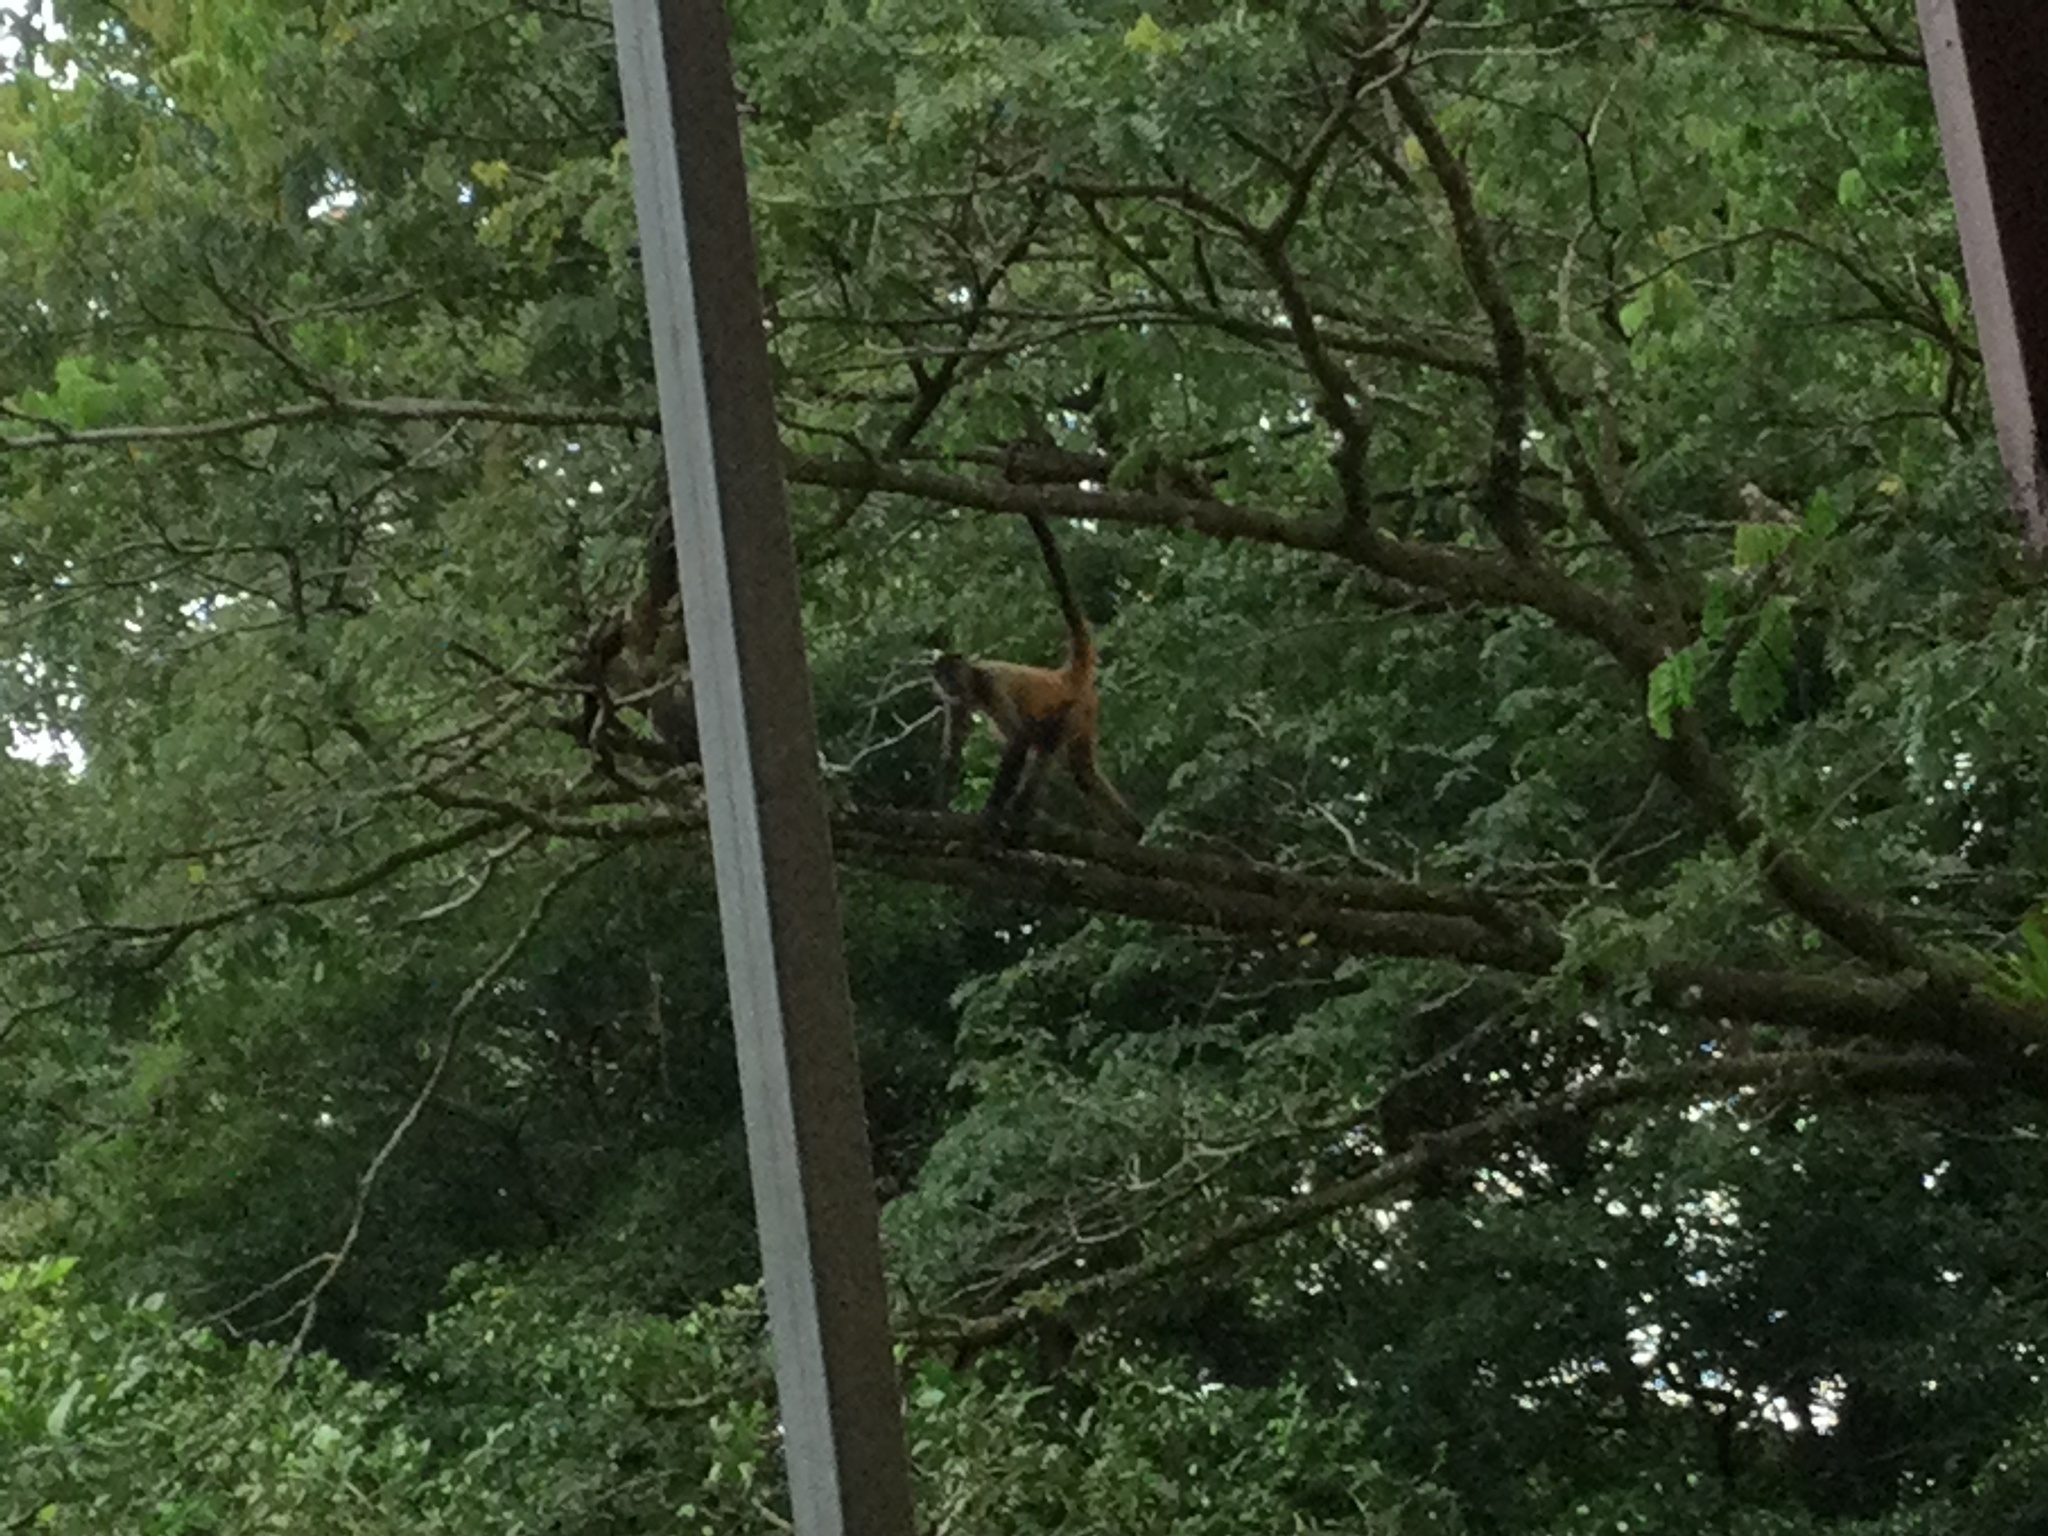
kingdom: Animalia
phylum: Chordata
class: Mammalia
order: Primates
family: Atelidae
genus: Ateles
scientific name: Ateles geoffroyi
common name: Black-handed spider monkey
